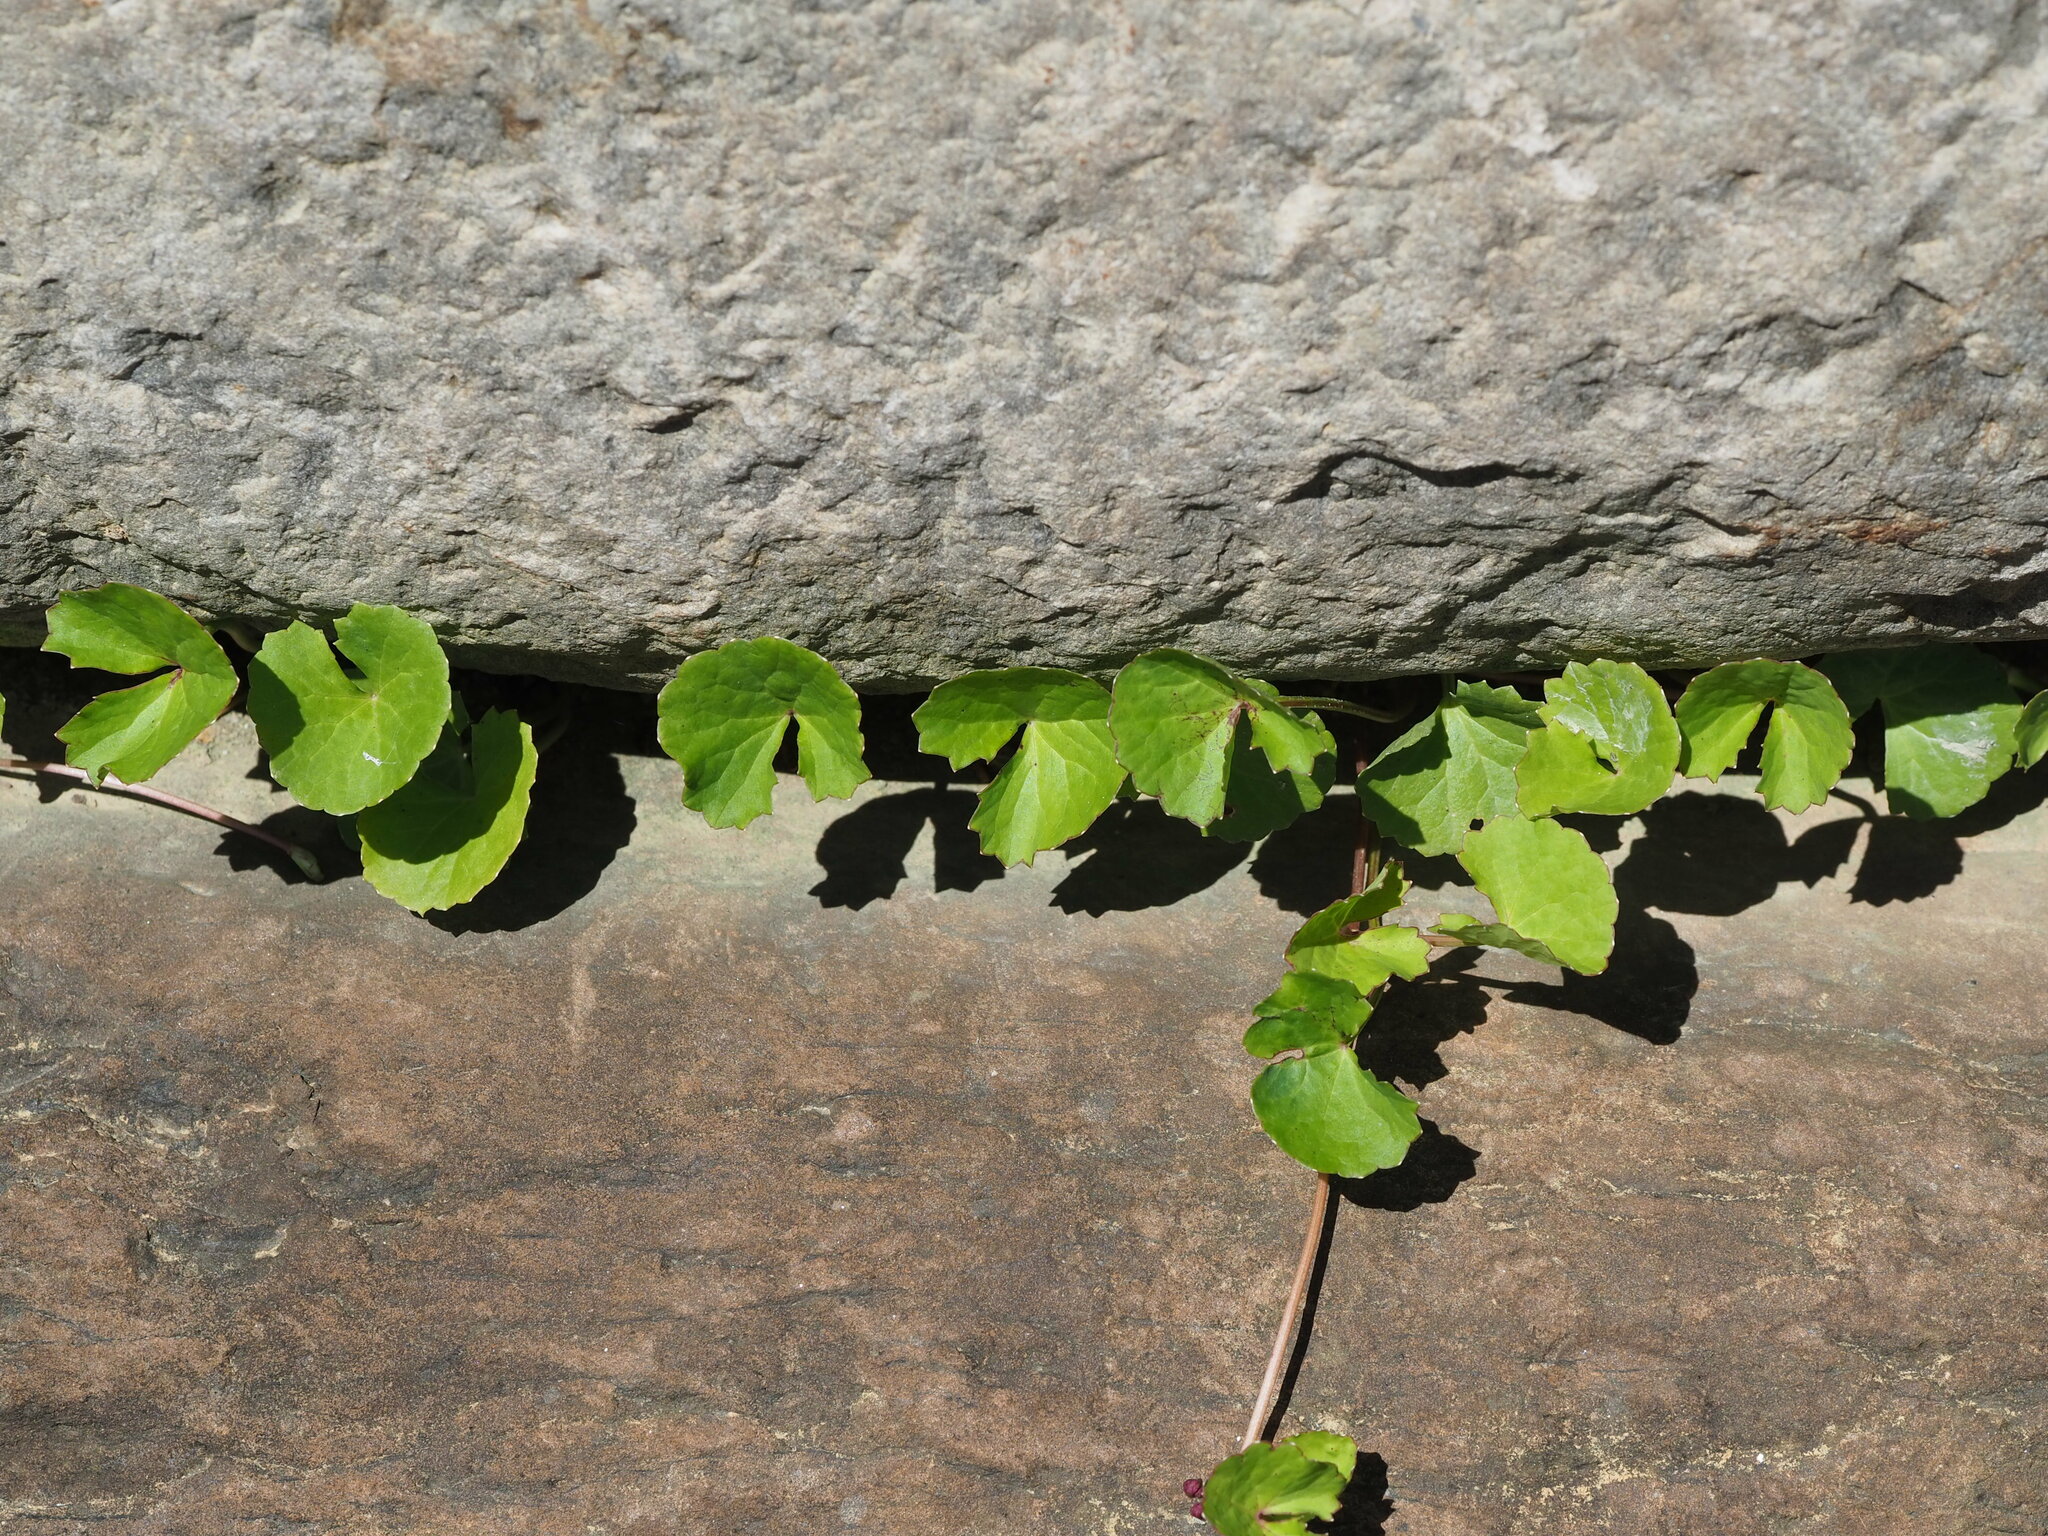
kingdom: Plantae
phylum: Tracheophyta
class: Magnoliopsida
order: Apiales
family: Apiaceae
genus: Centella
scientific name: Centella asiatica
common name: Spadeleaf
